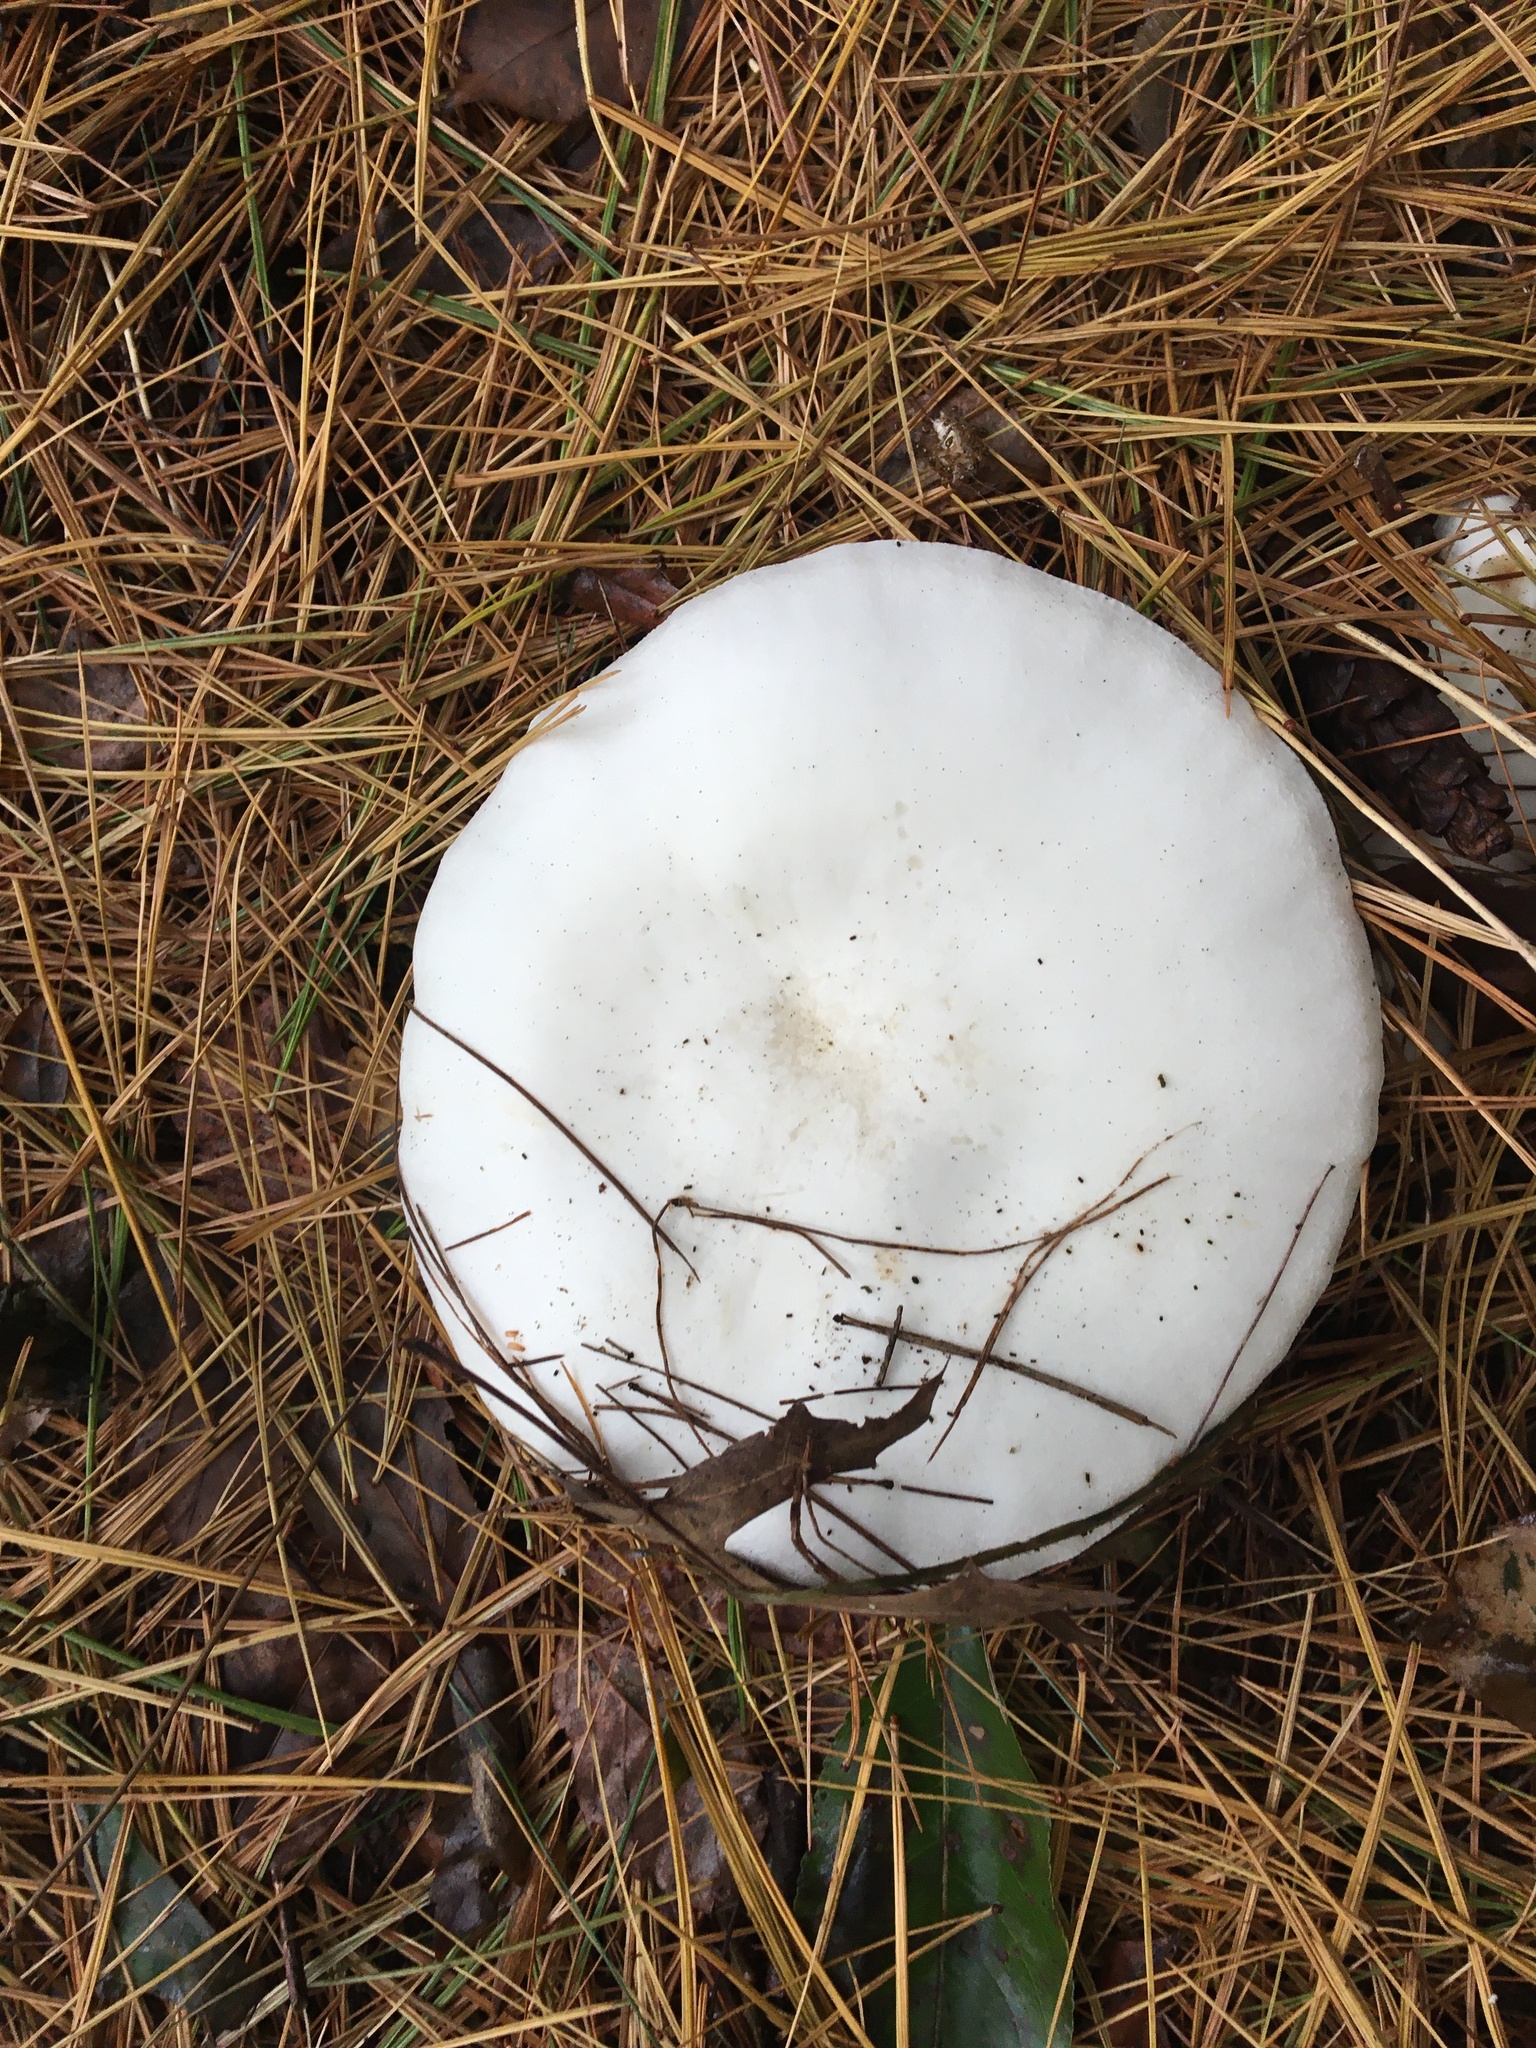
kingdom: Fungi
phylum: Basidiomycota
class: Agaricomycetes
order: Agaricales
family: Tricholomataceae
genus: Clitocybe
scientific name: Clitocybe robusta
